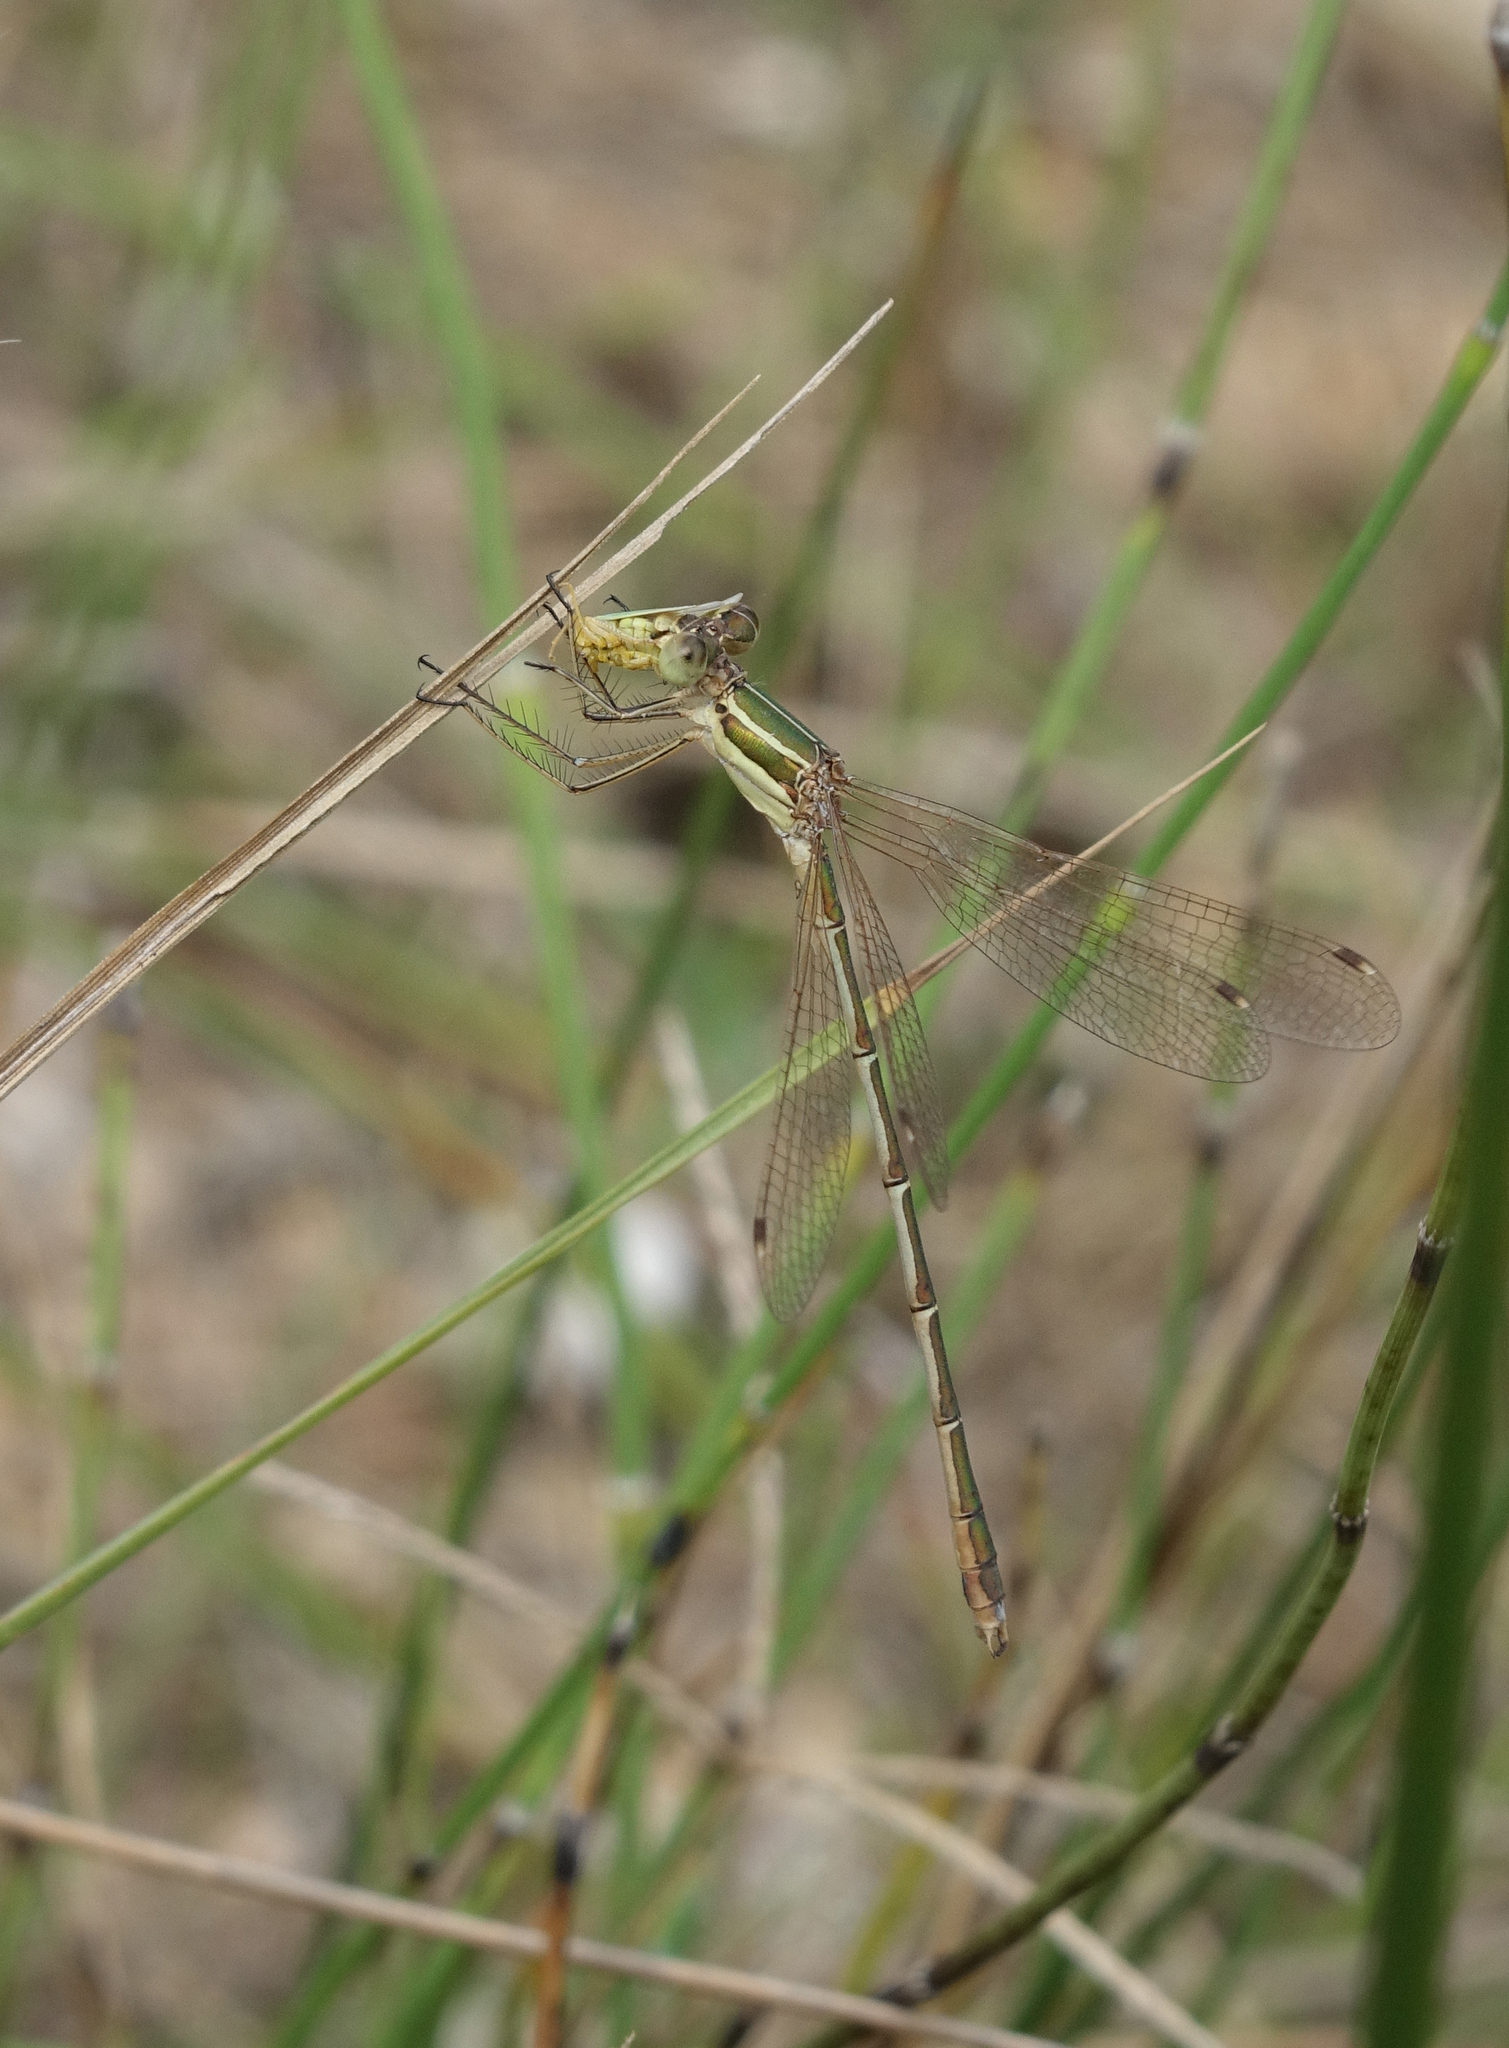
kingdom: Animalia
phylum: Arthropoda
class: Insecta
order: Odonata
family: Lestidae
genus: Lestes
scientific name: Lestes barbarus
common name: Migrant spreadwing
